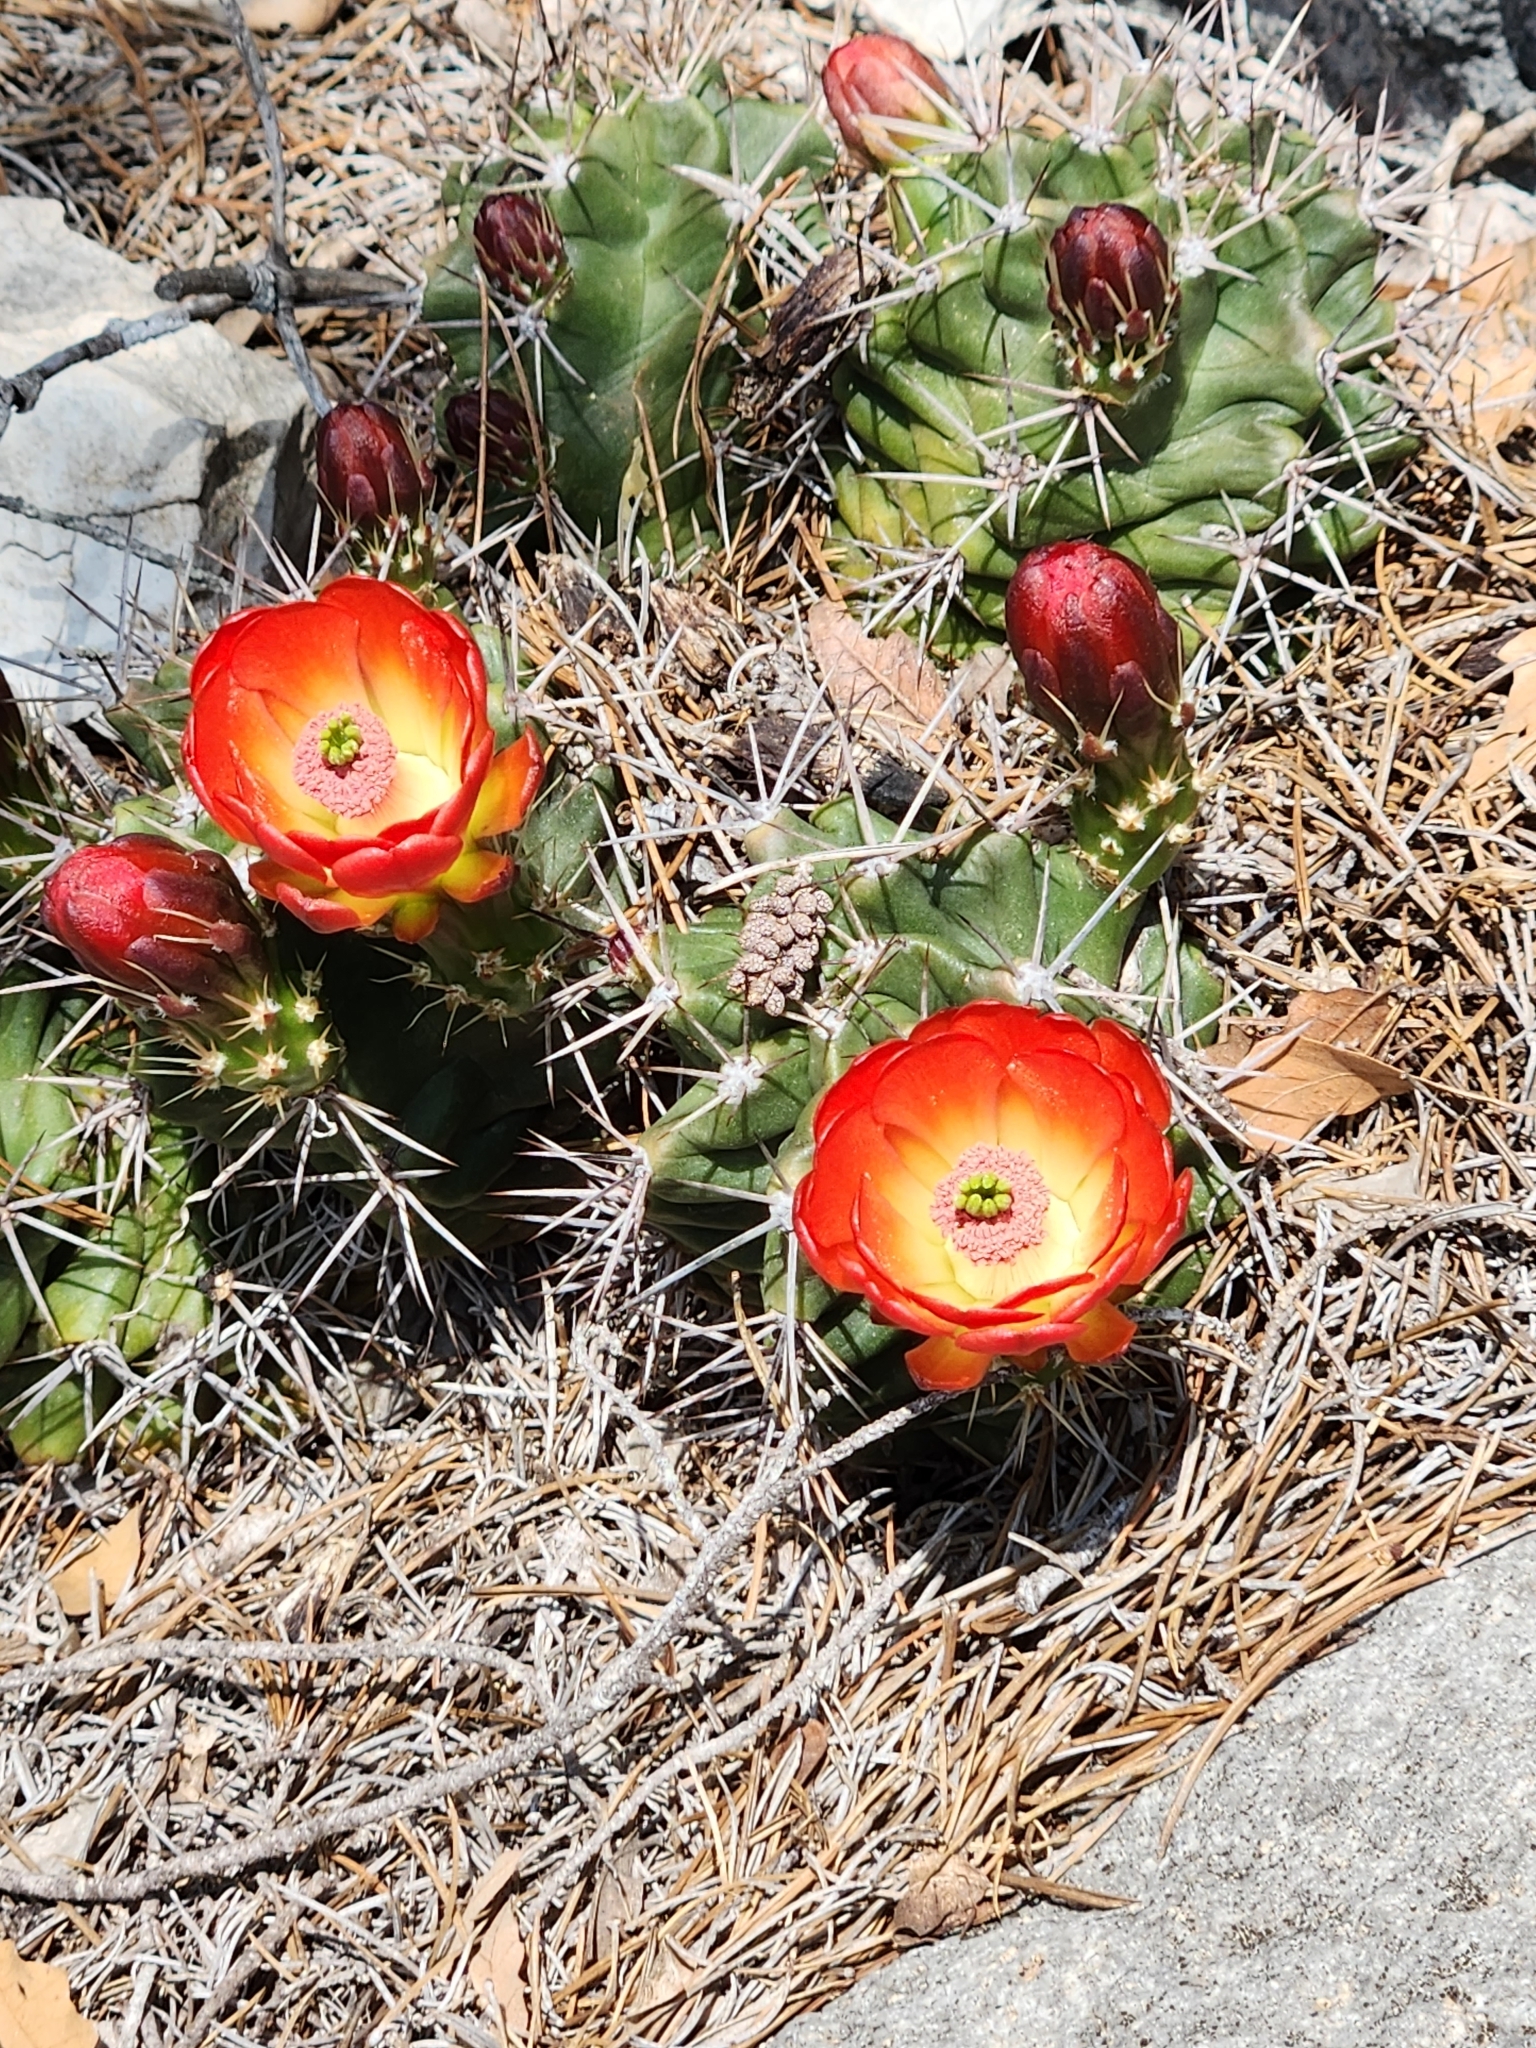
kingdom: Plantae
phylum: Tracheophyta
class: Magnoliopsida
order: Caryophyllales
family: Cactaceae
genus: Echinocereus
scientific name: Echinocereus coccineus
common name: Scarlet hedgehog cactus
